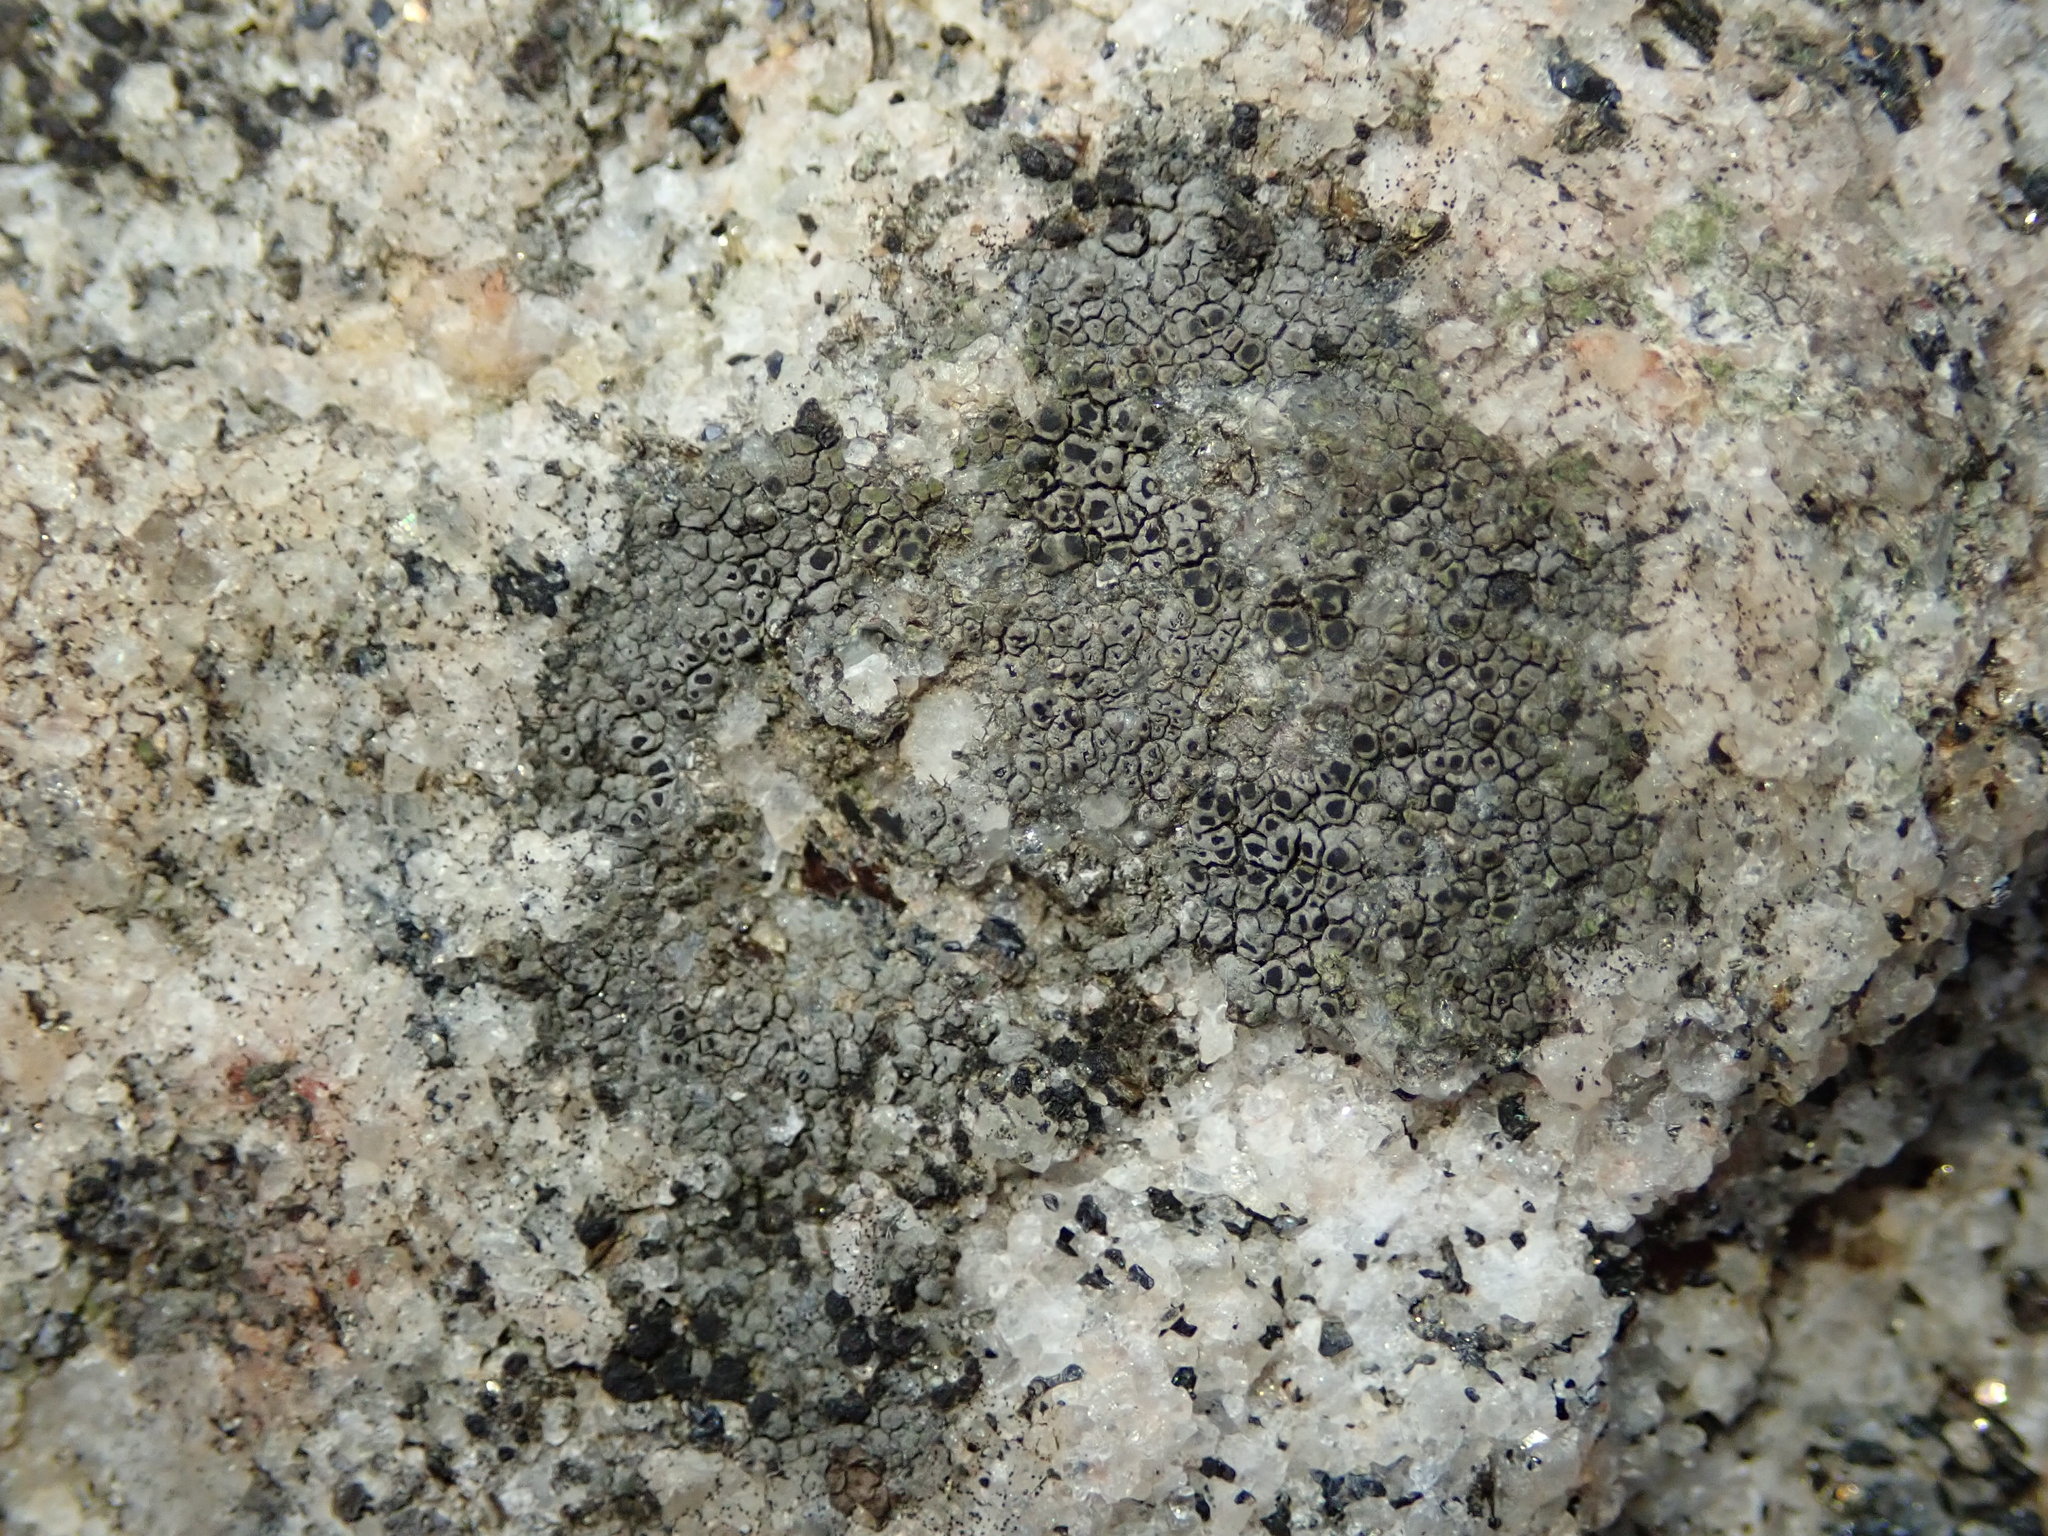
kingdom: Fungi
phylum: Ascomycota
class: Lecanoromycetes
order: Caliciales
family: Physciaceae
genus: Rinodina
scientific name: Rinodina cana
